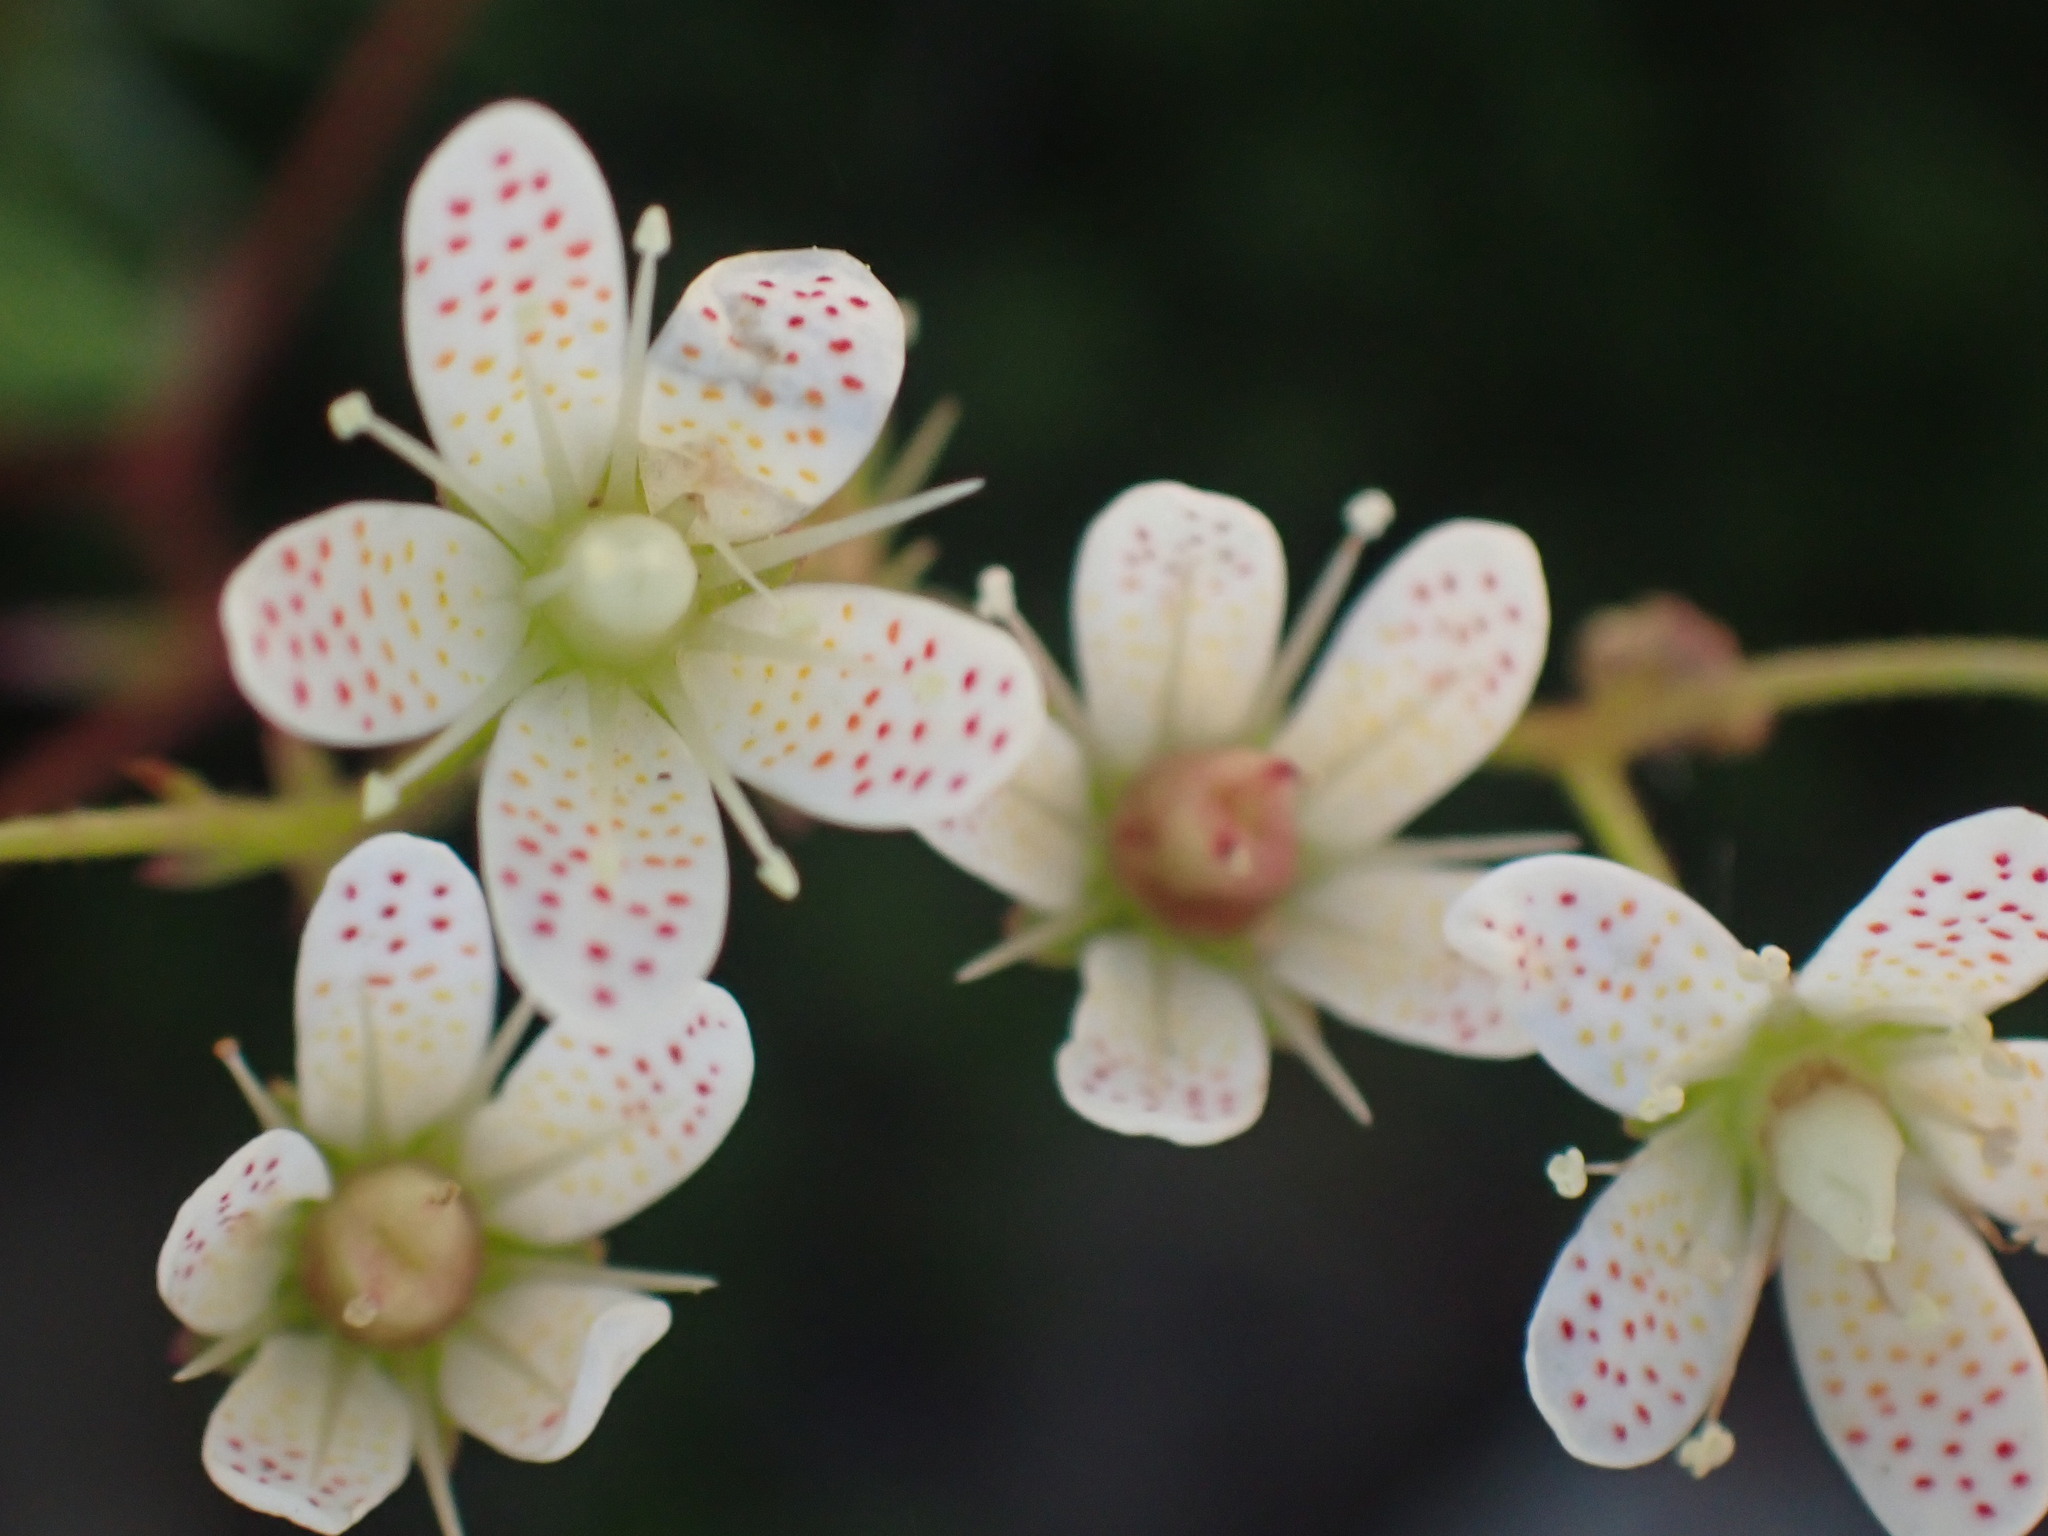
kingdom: Plantae
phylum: Tracheophyta
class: Magnoliopsida
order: Saxifragales
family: Saxifragaceae
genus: Saxifraga
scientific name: Saxifraga bronchialis
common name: Matted saxifrage
